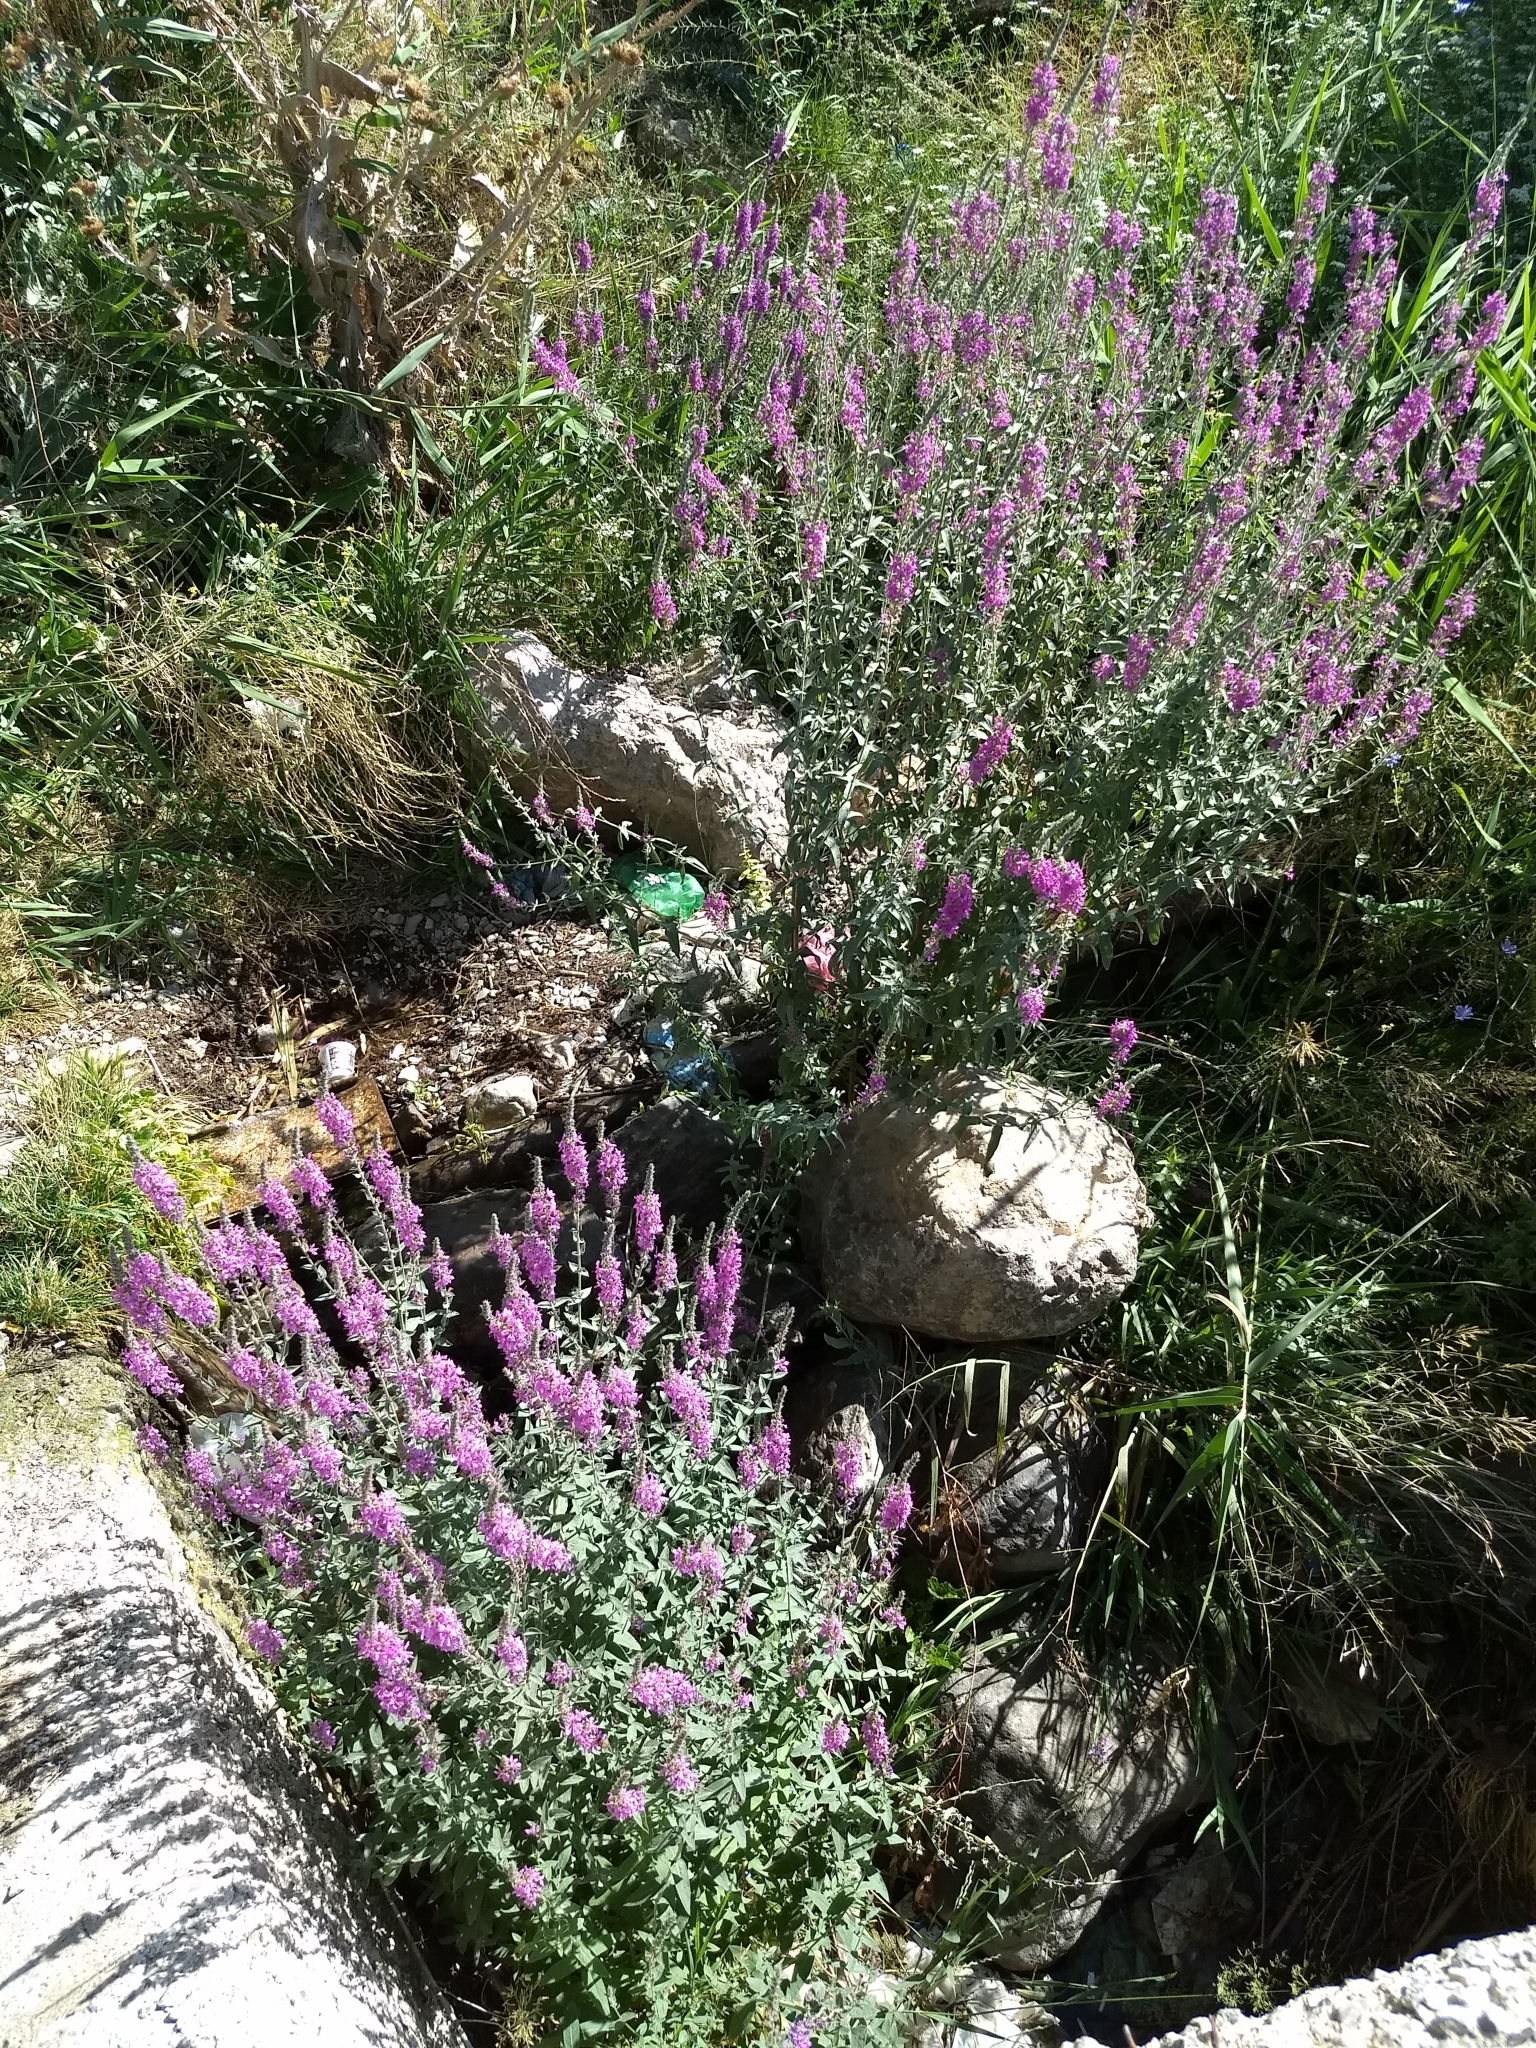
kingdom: Plantae
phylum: Tracheophyta
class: Magnoliopsida
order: Myrtales
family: Lythraceae
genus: Lythrum
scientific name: Lythrum salicaria
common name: Purple loosestrife
